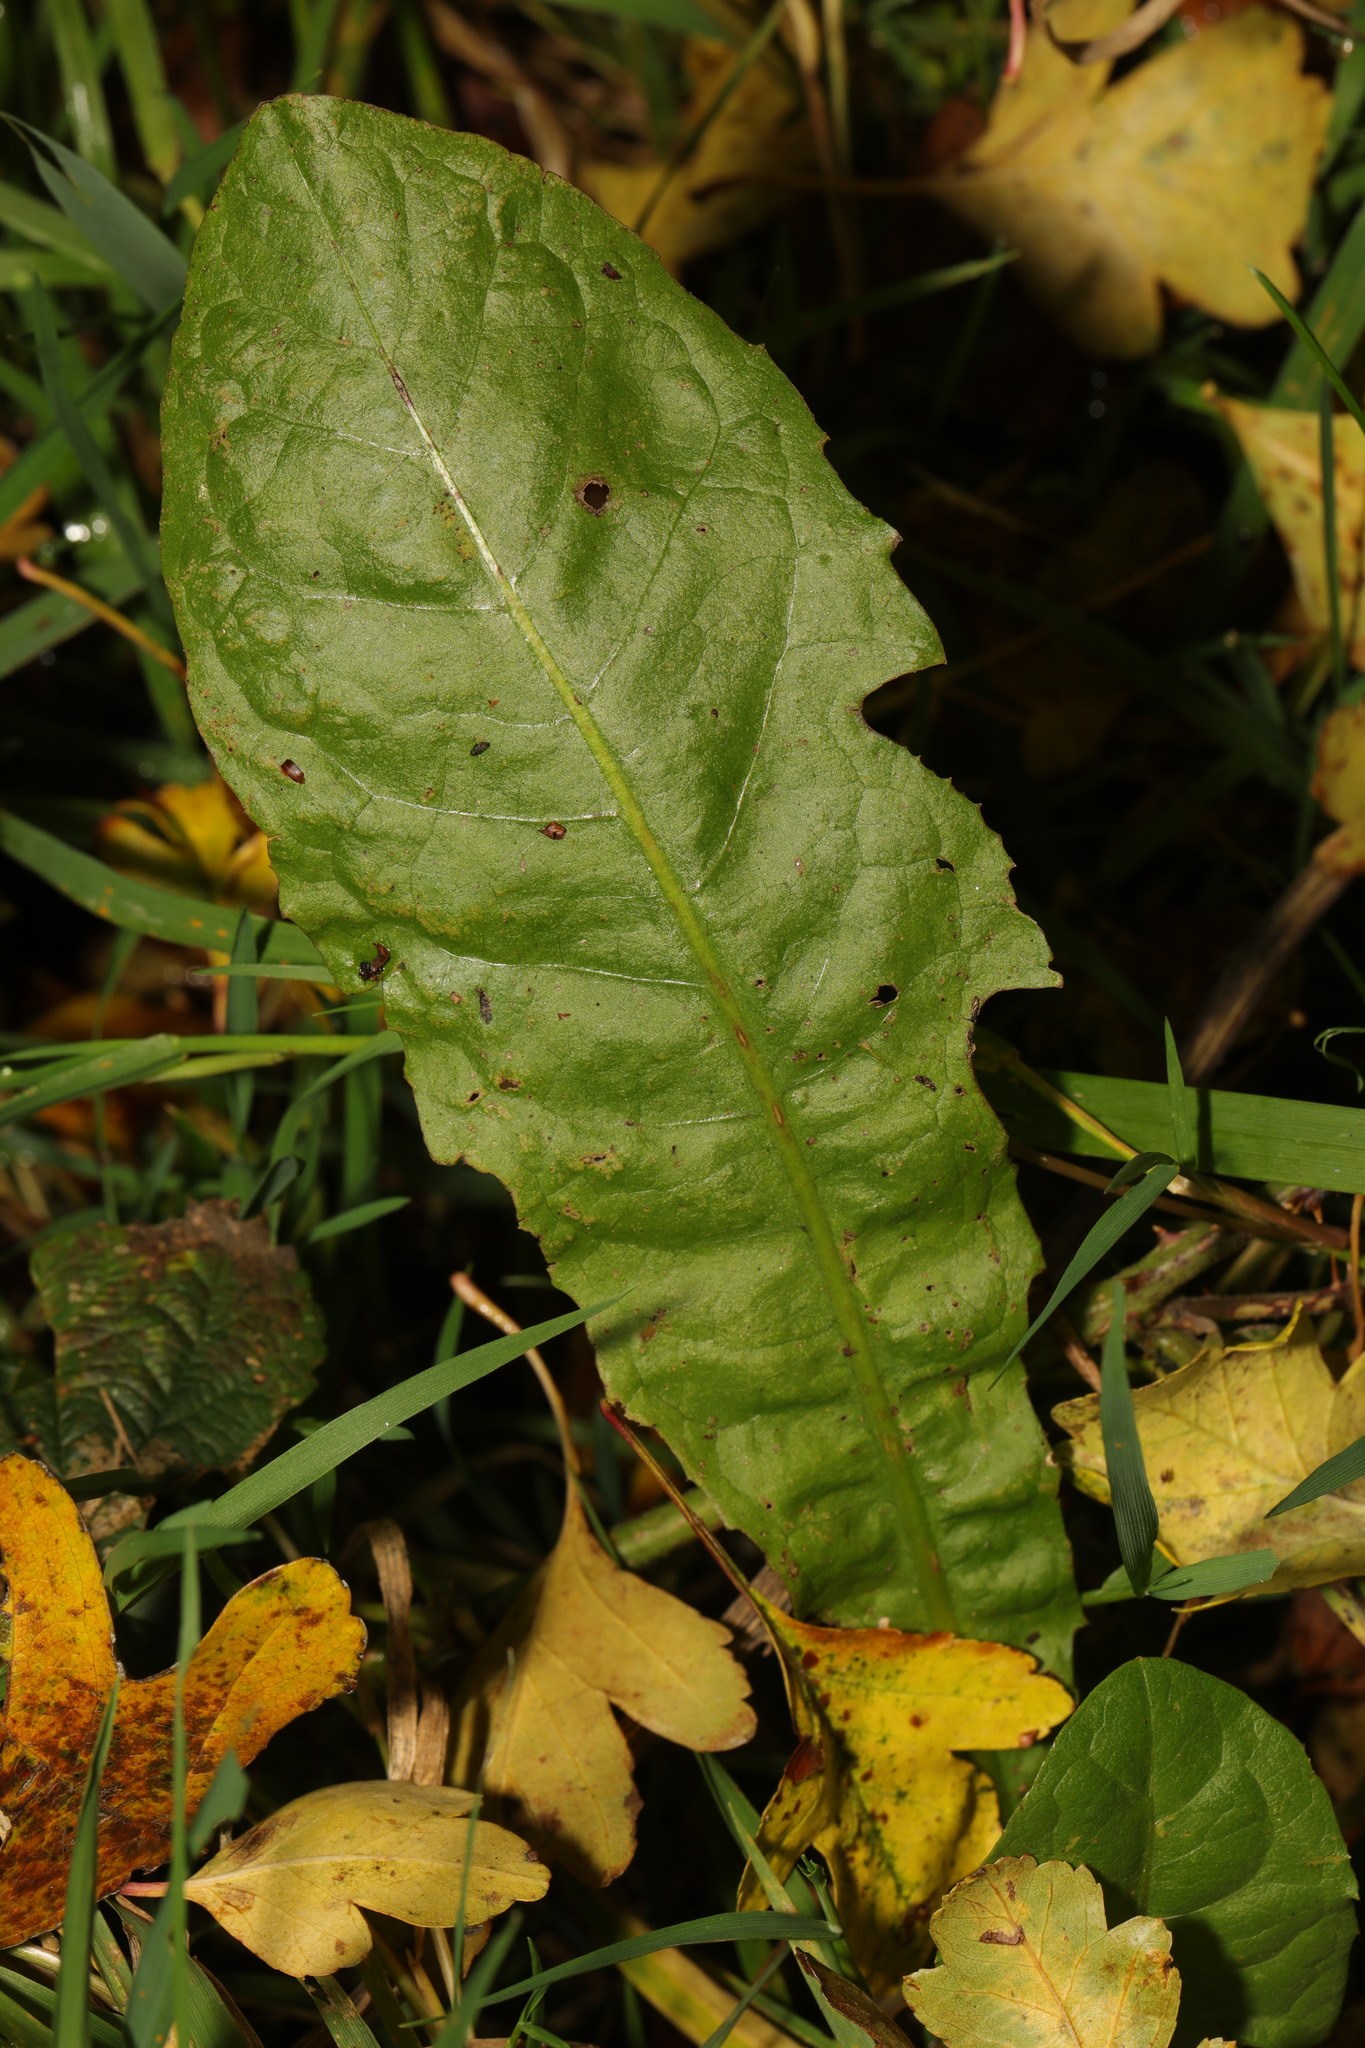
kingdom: Plantae
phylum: Tracheophyta
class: Magnoliopsida
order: Asterales
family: Asteraceae
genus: Taraxacum
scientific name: Taraxacum officinale
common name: Common dandelion
